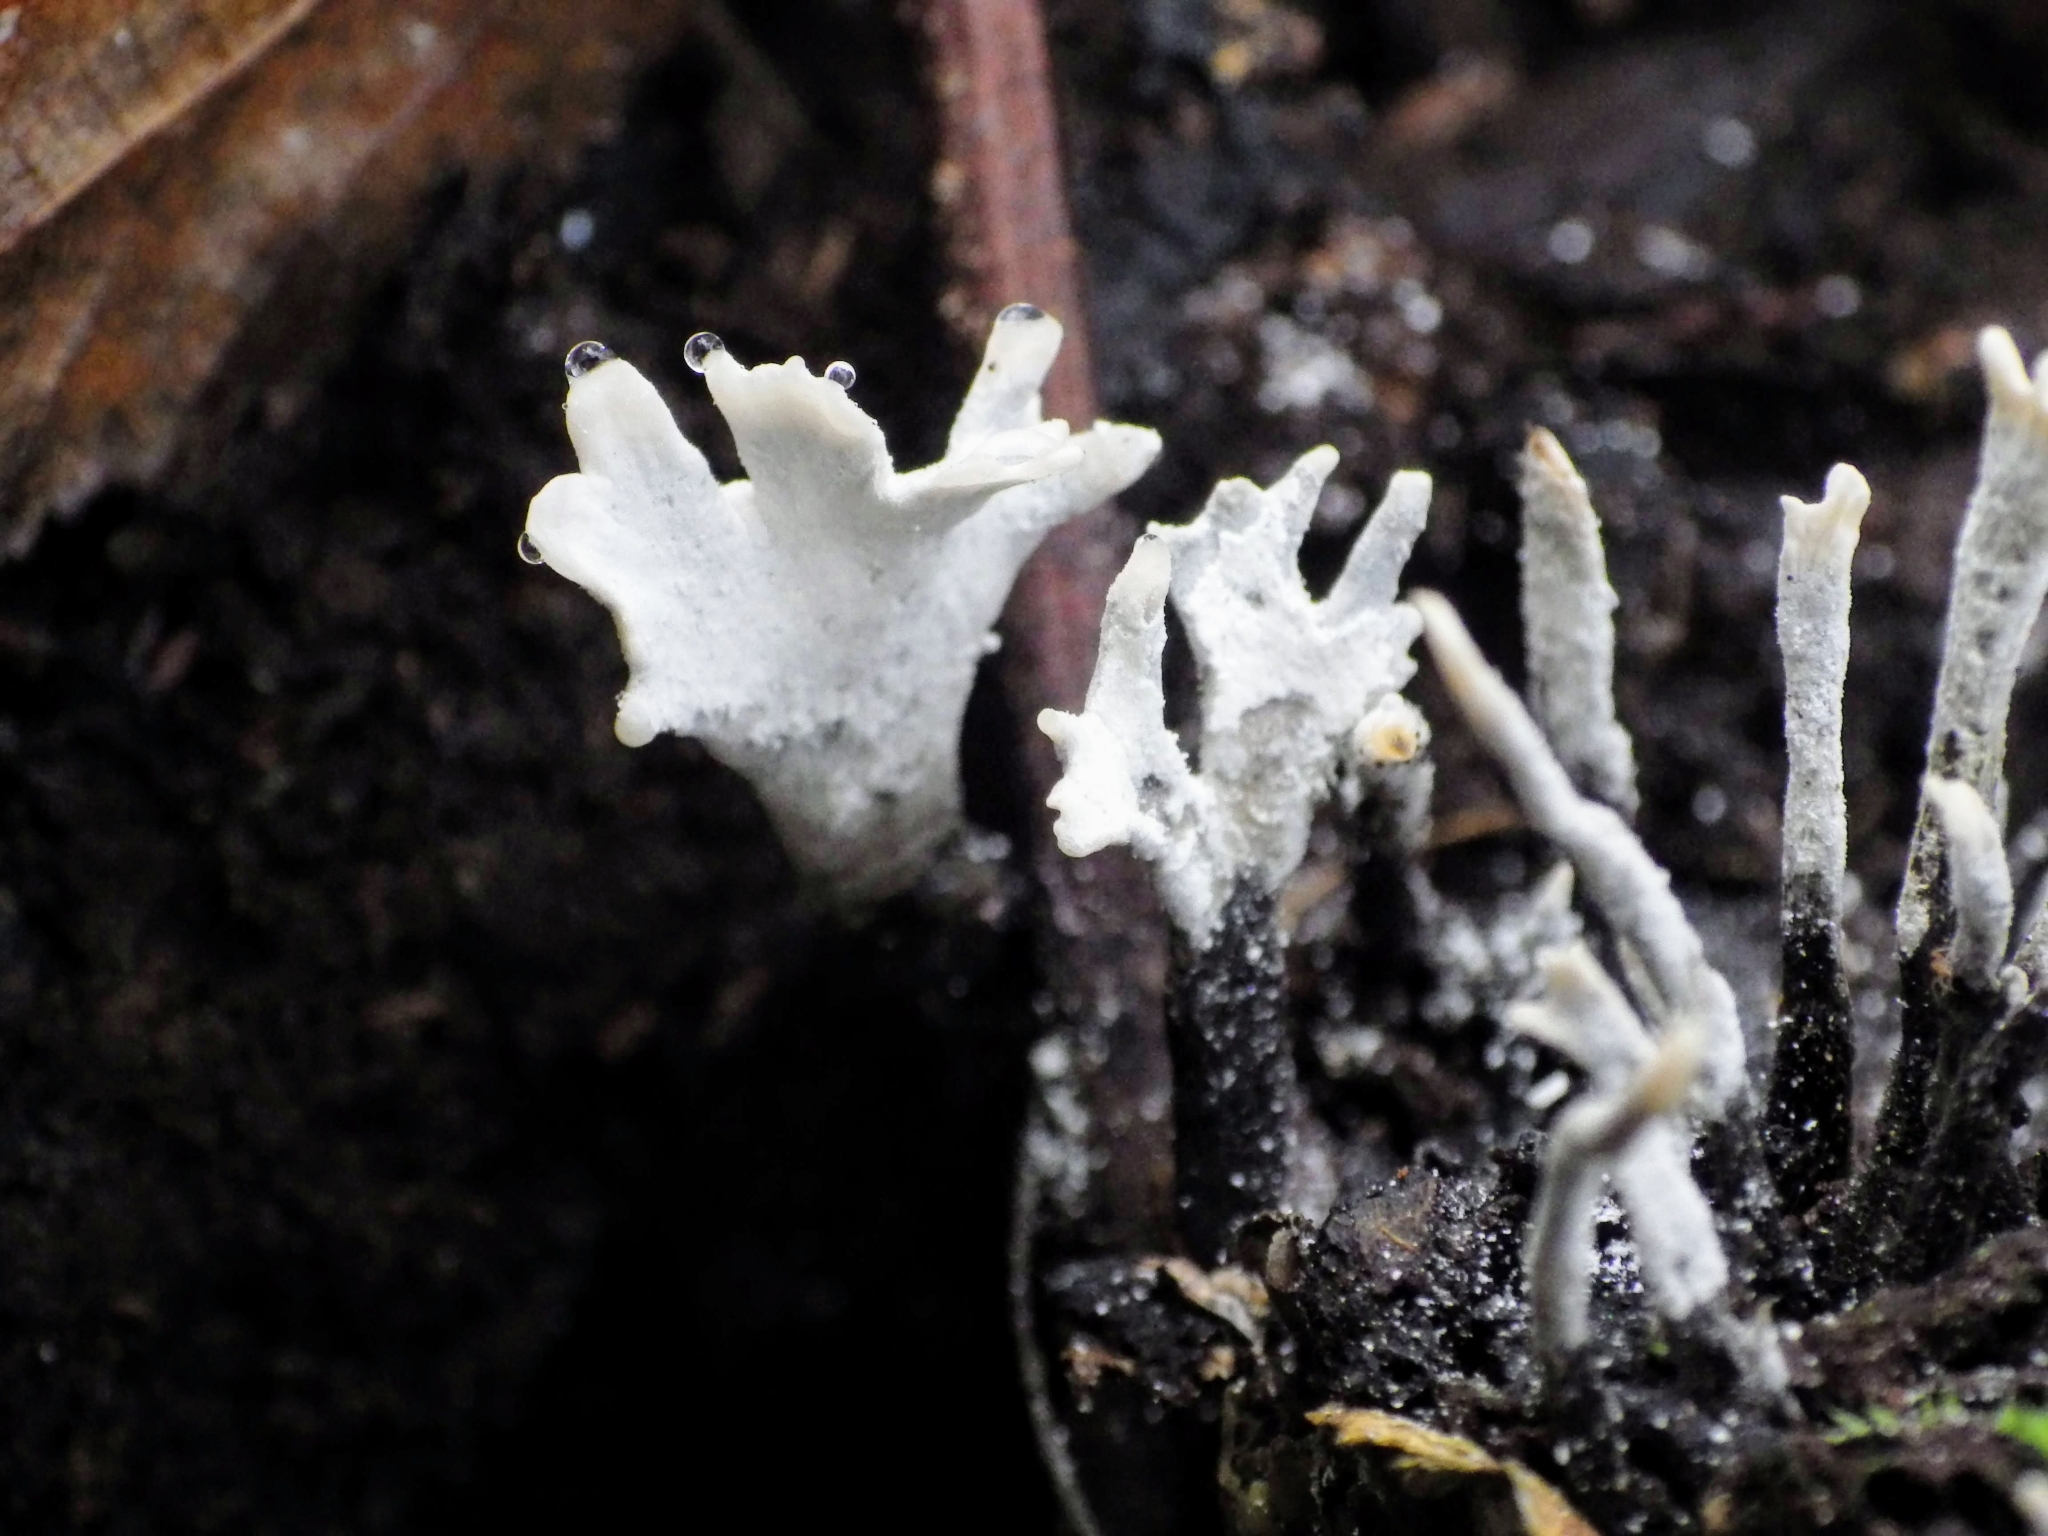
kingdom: Fungi
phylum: Ascomycota
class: Sordariomycetes
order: Xylariales
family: Xylariaceae
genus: Xylaria
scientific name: Xylaria hypoxylon
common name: Candle-snuff fungus
